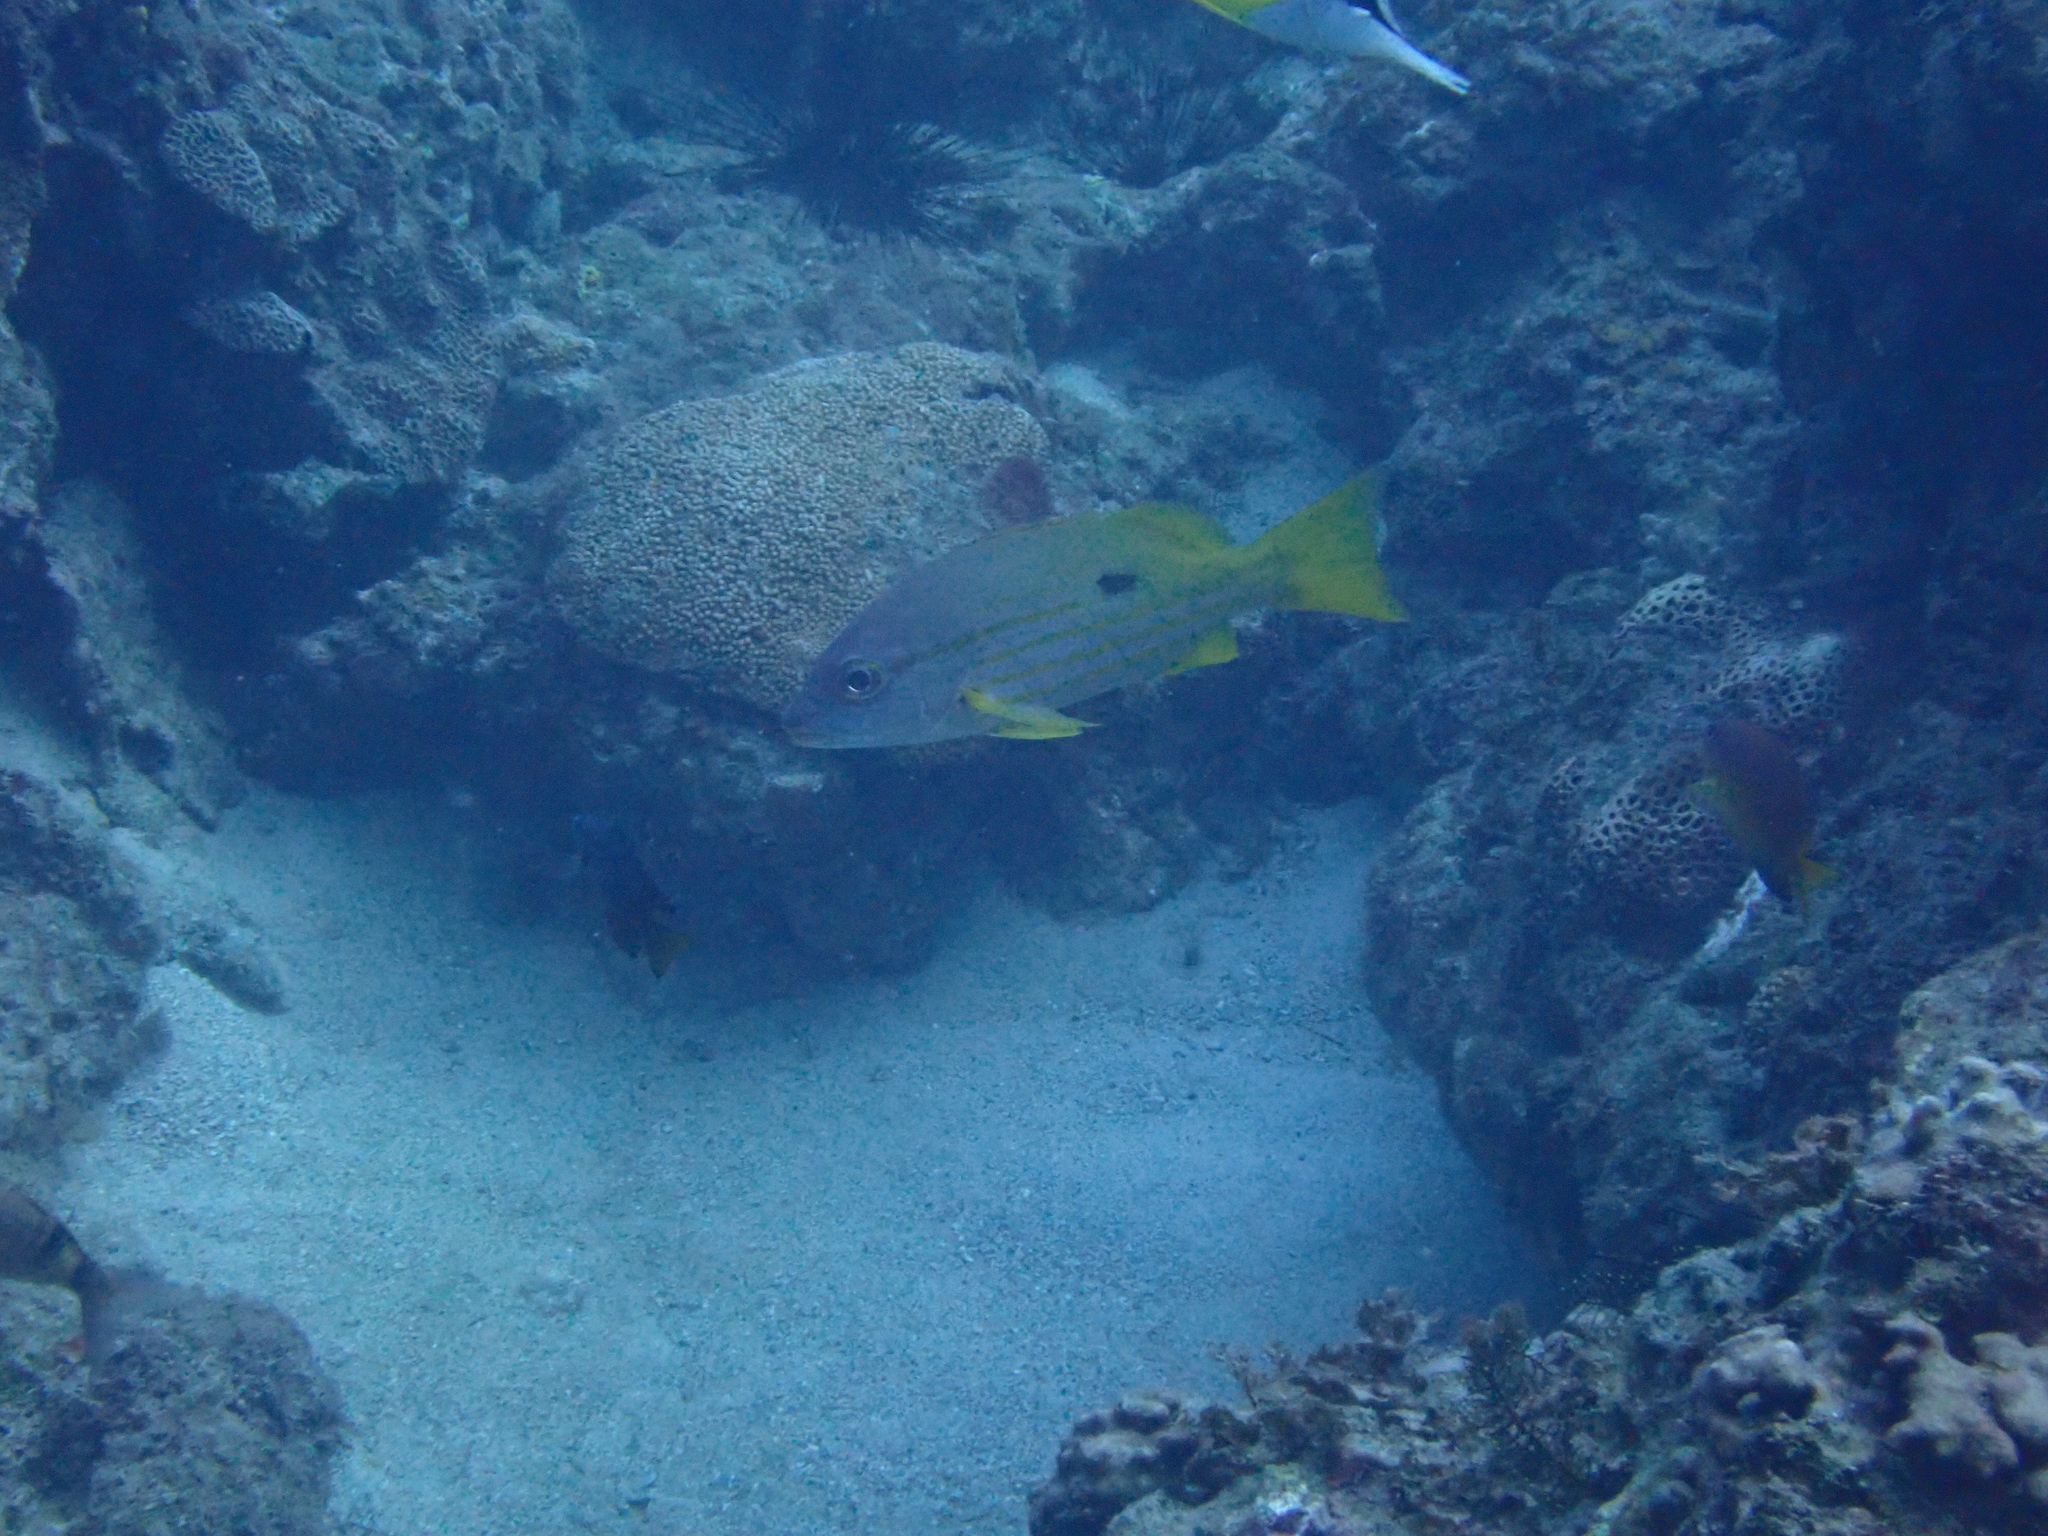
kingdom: Animalia
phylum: Chordata
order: Perciformes
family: Lutjanidae
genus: Lutjanus
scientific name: Lutjanus fulviflamma
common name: Blackspot snapper
